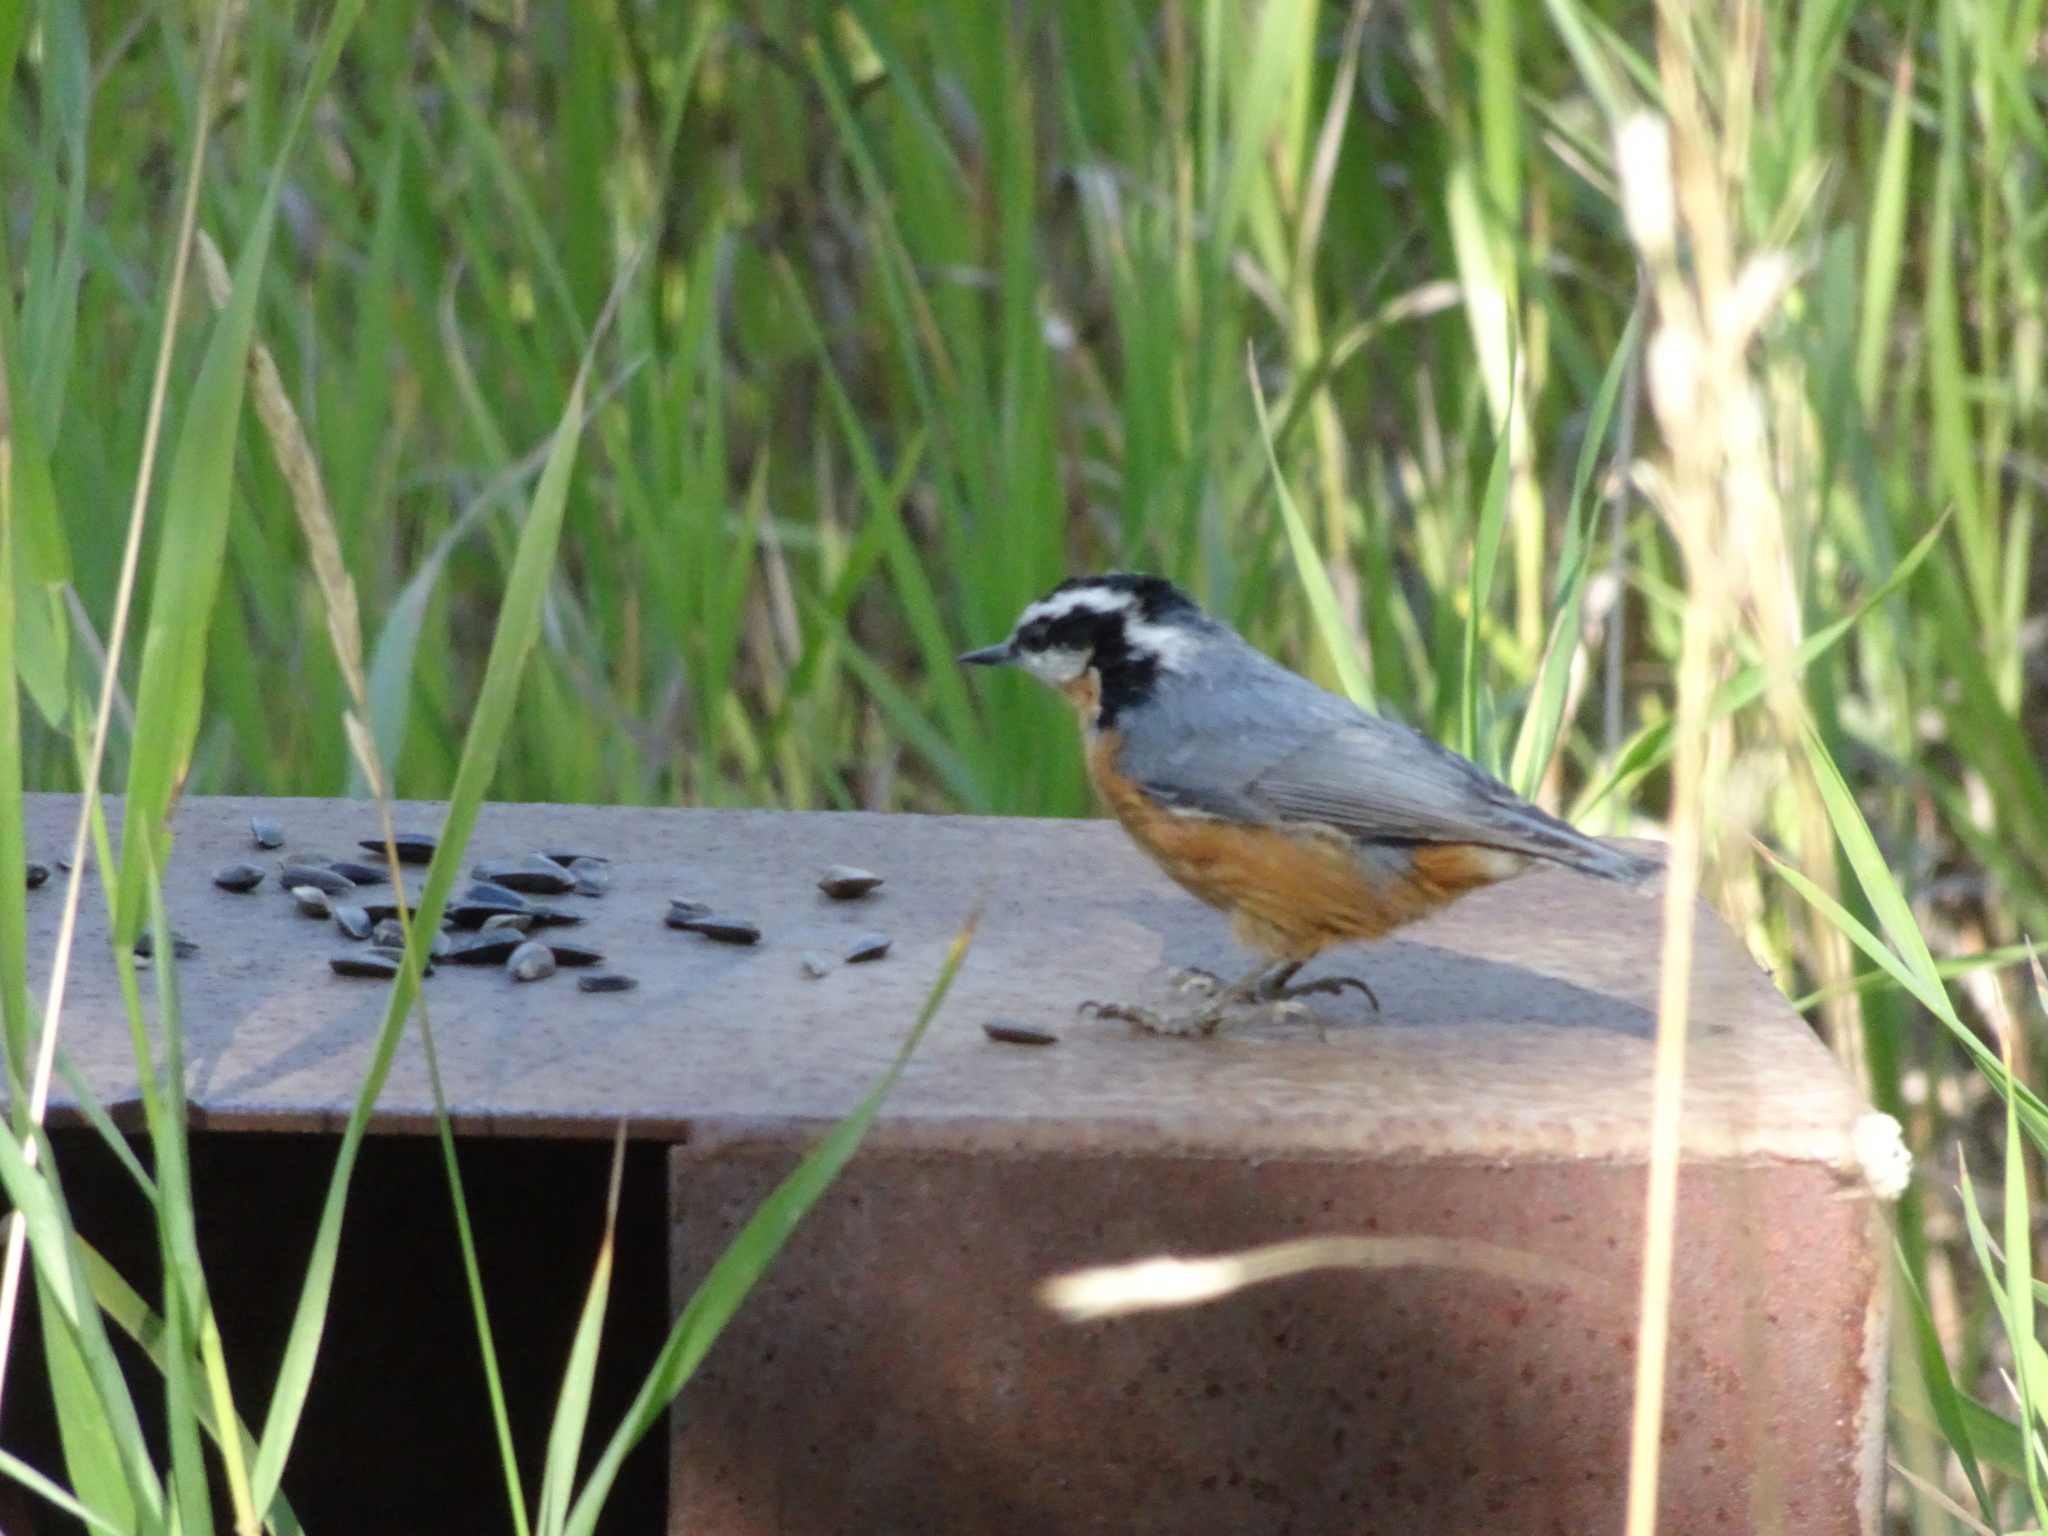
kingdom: Animalia
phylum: Chordata
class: Aves
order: Passeriformes
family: Sittidae
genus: Sitta
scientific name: Sitta canadensis
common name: Red-breasted nuthatch
